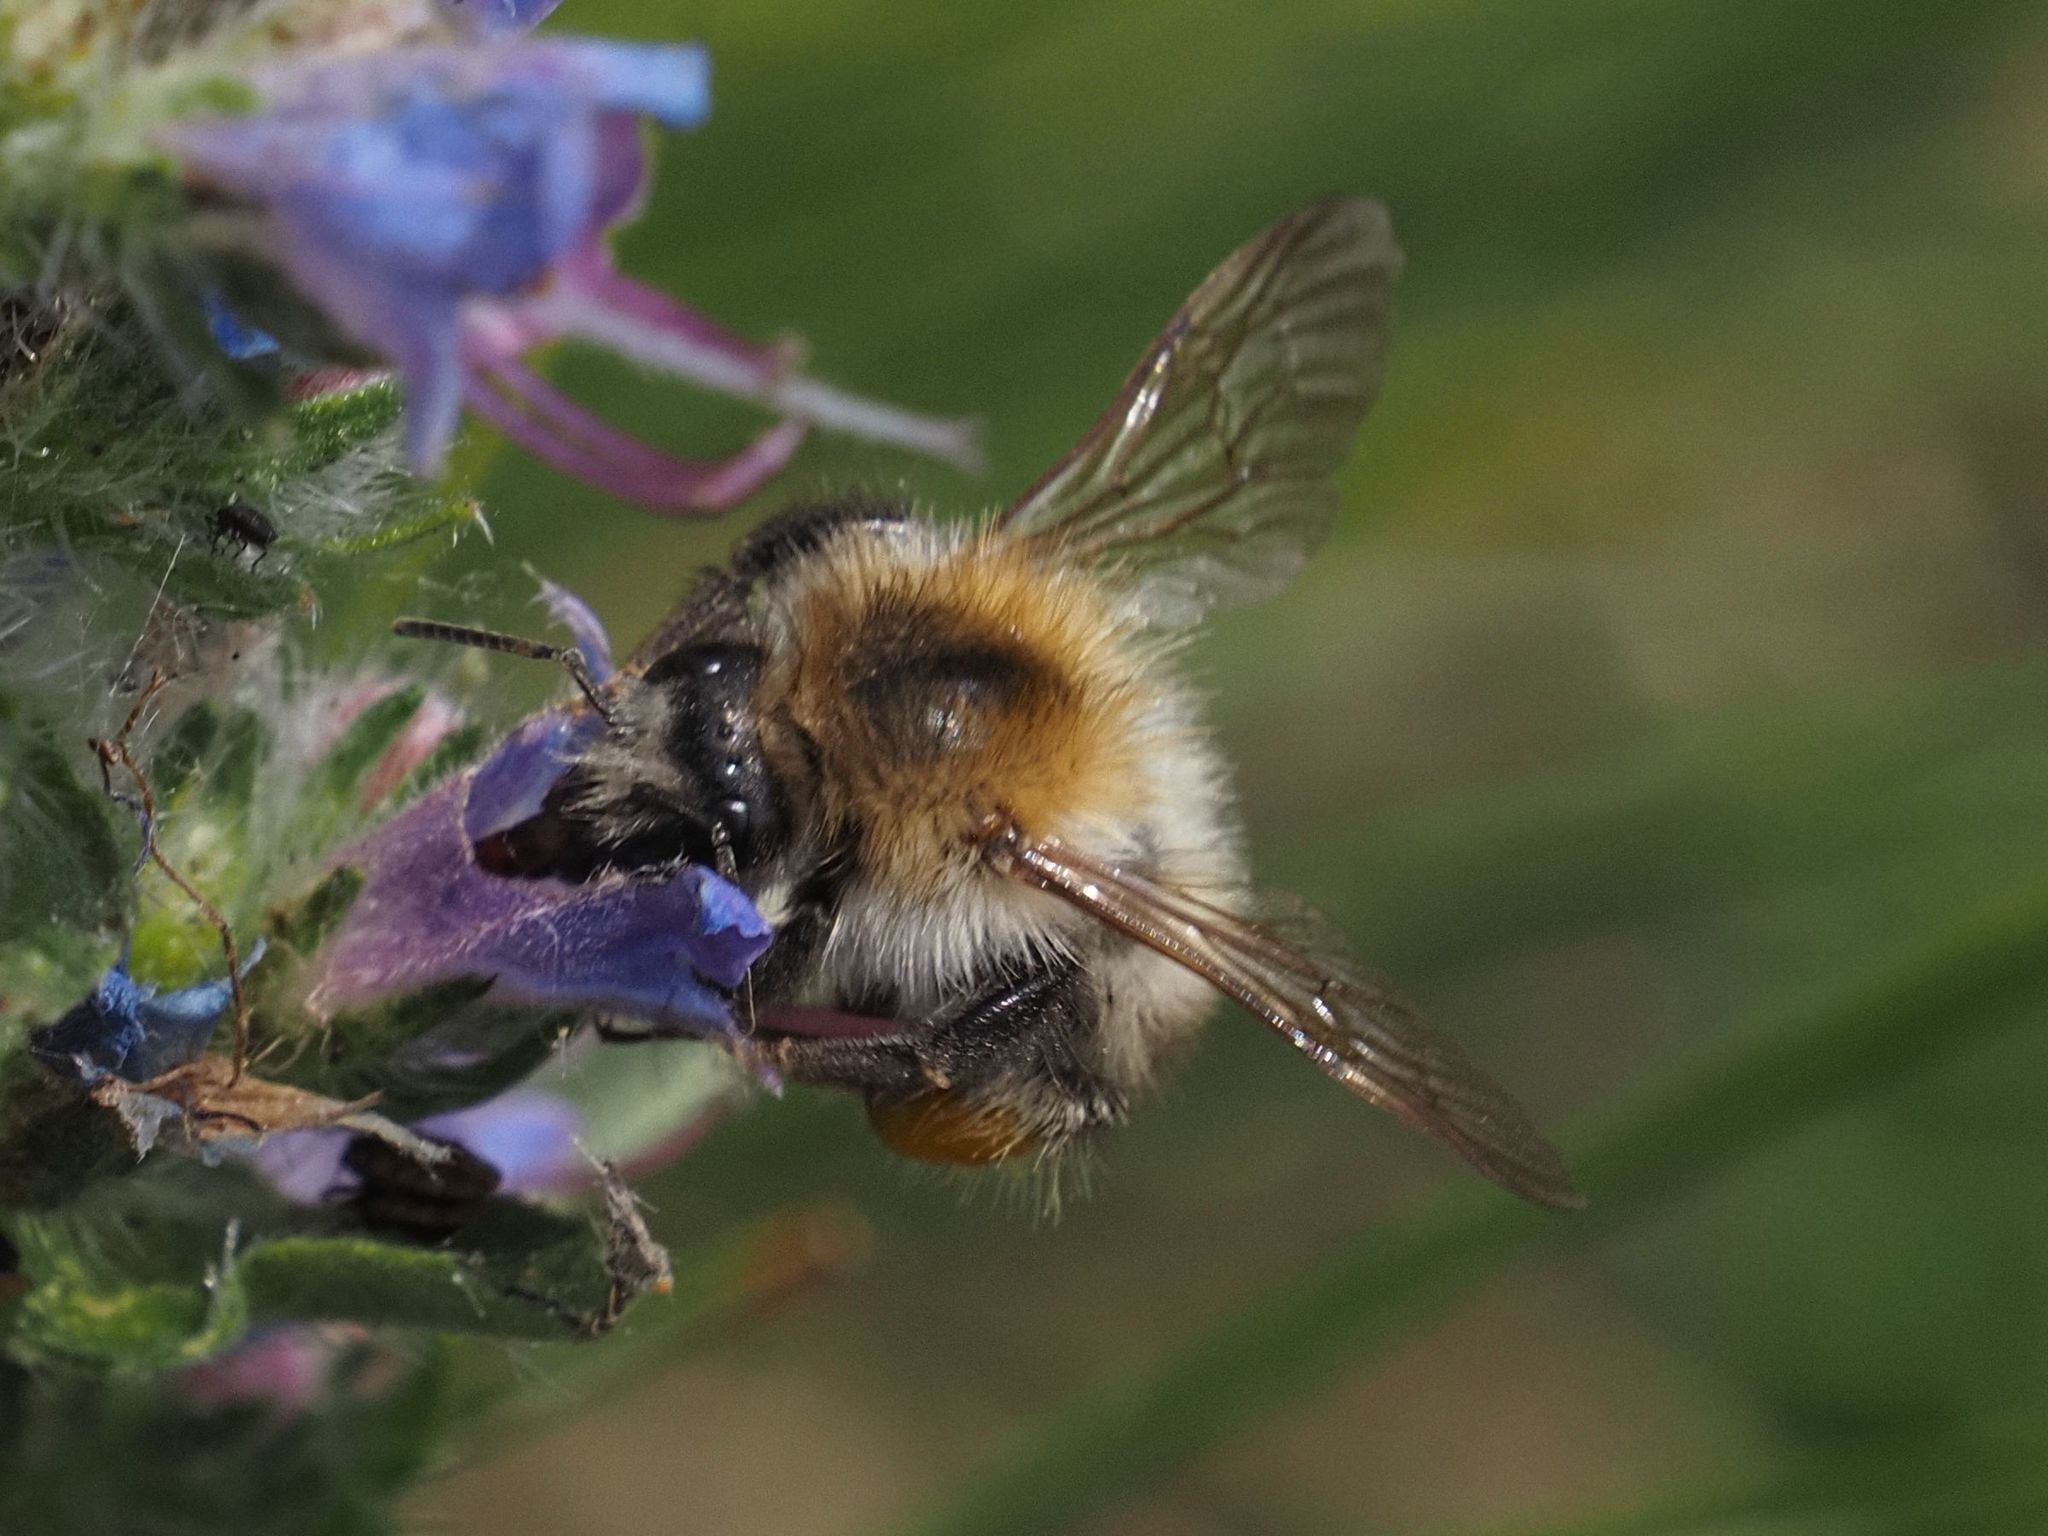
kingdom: Animalia
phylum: Arthropoda
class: Insecta
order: Hymenoptera
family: Apidae
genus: Bombus
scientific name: Bombus pascuorum
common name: Common carder bee
